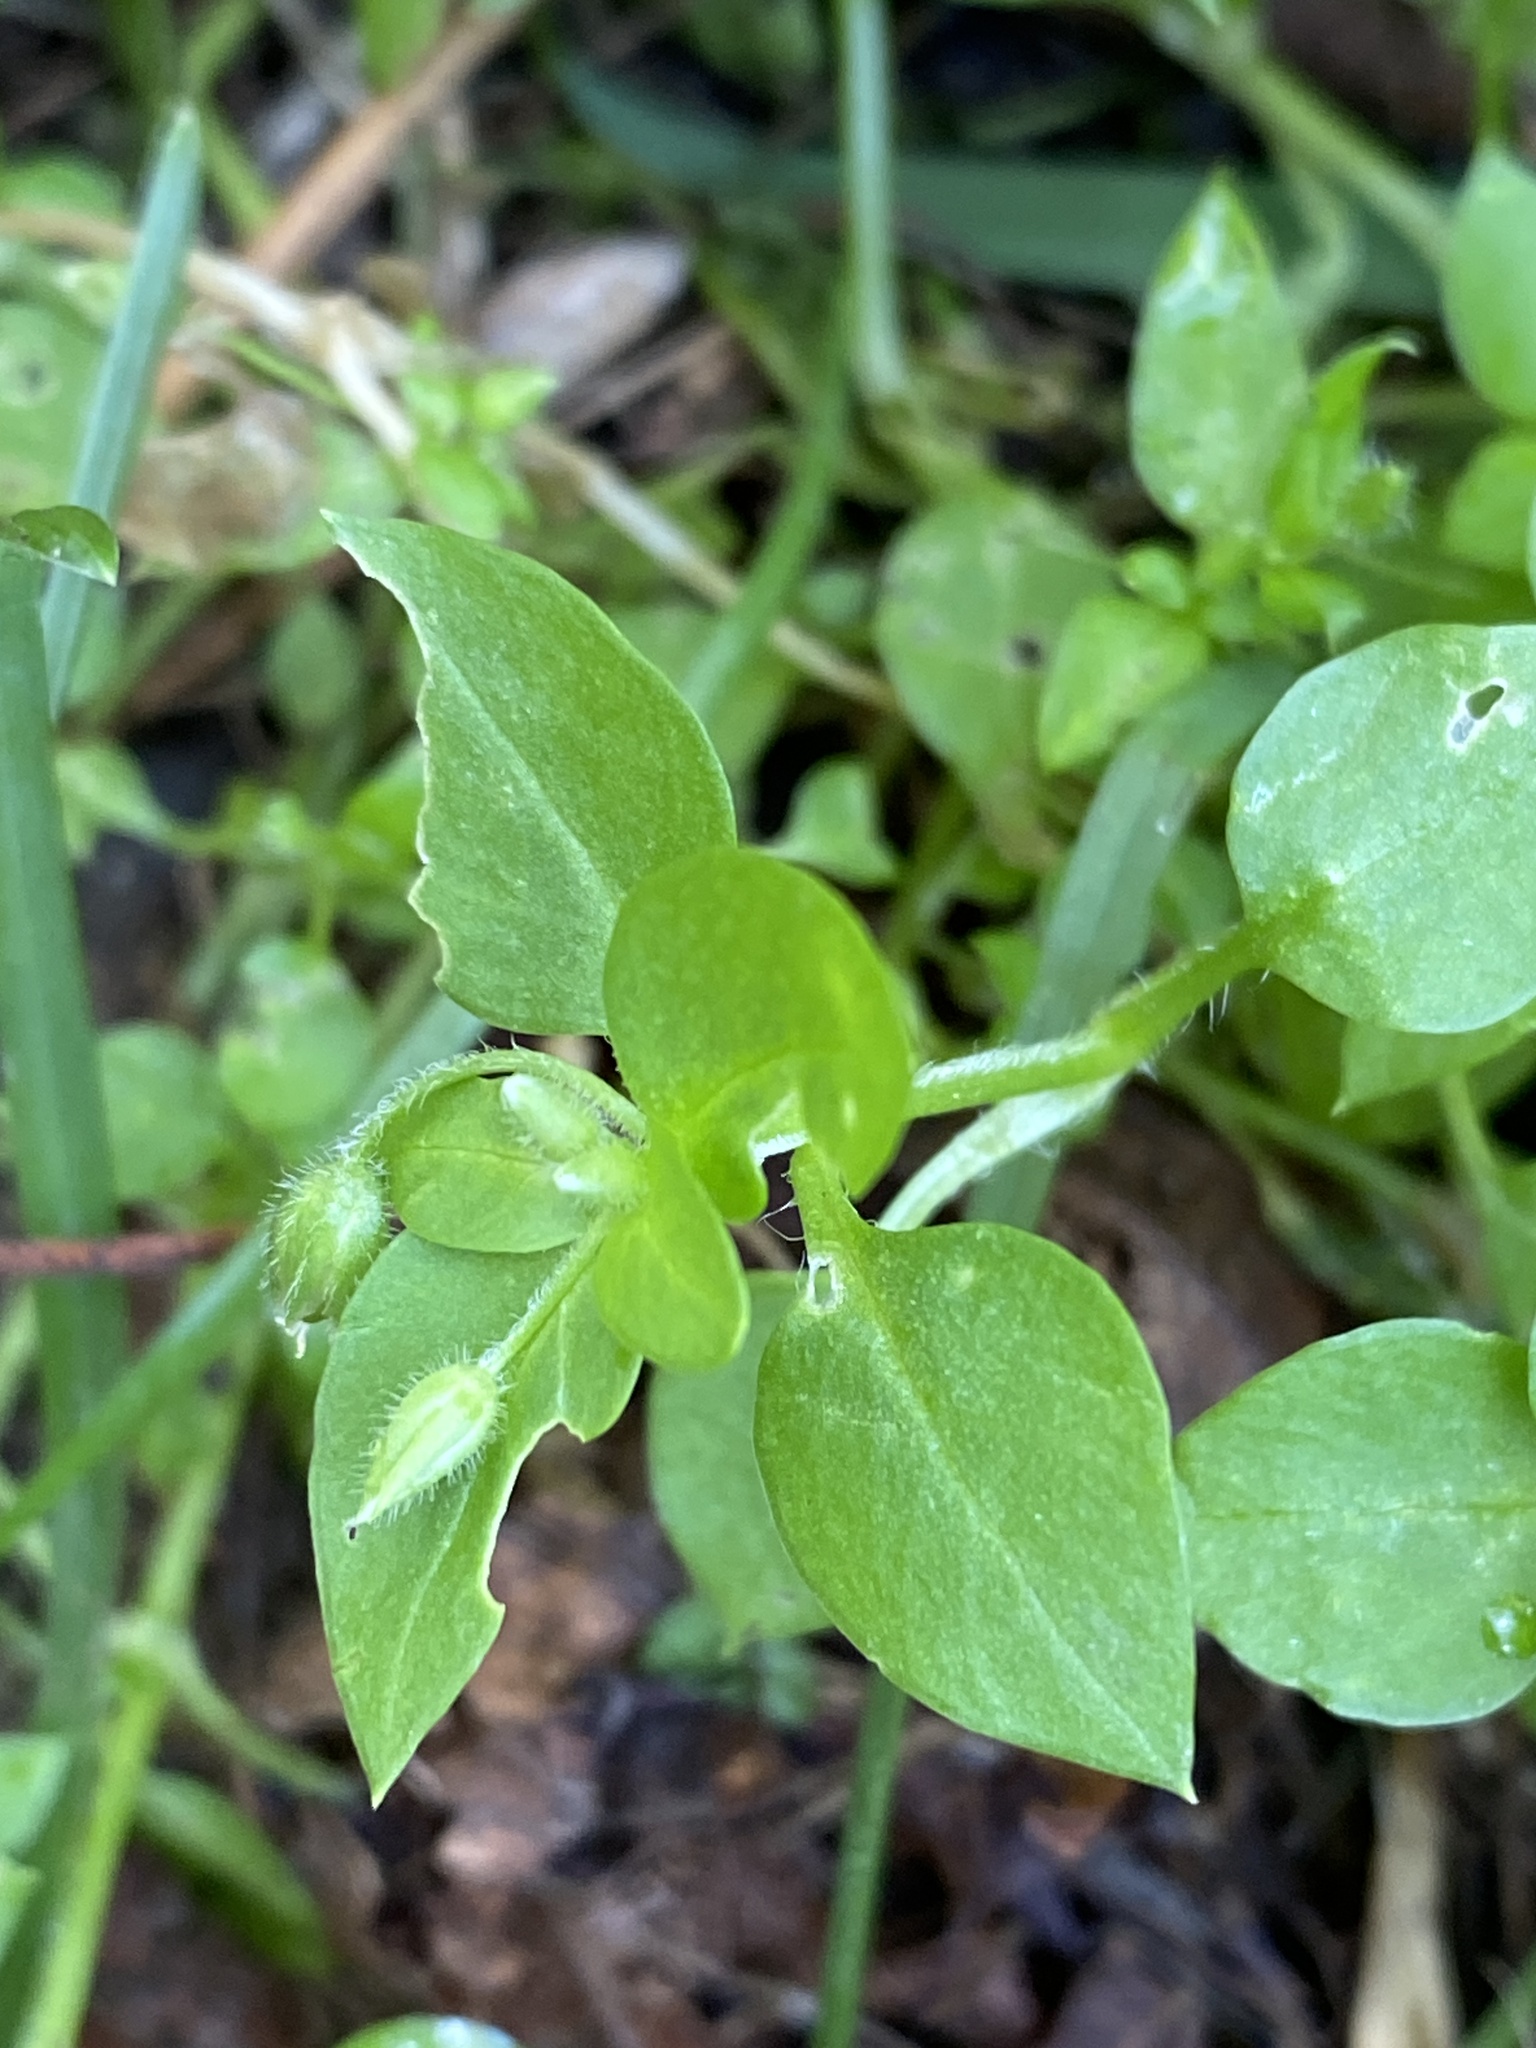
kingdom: Plantae
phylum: Tracheophyta
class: Magnoliopsida
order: Caryophyllales
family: Caryophyllaceae
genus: Stellaria
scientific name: Stellaria media
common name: Common chickweed
